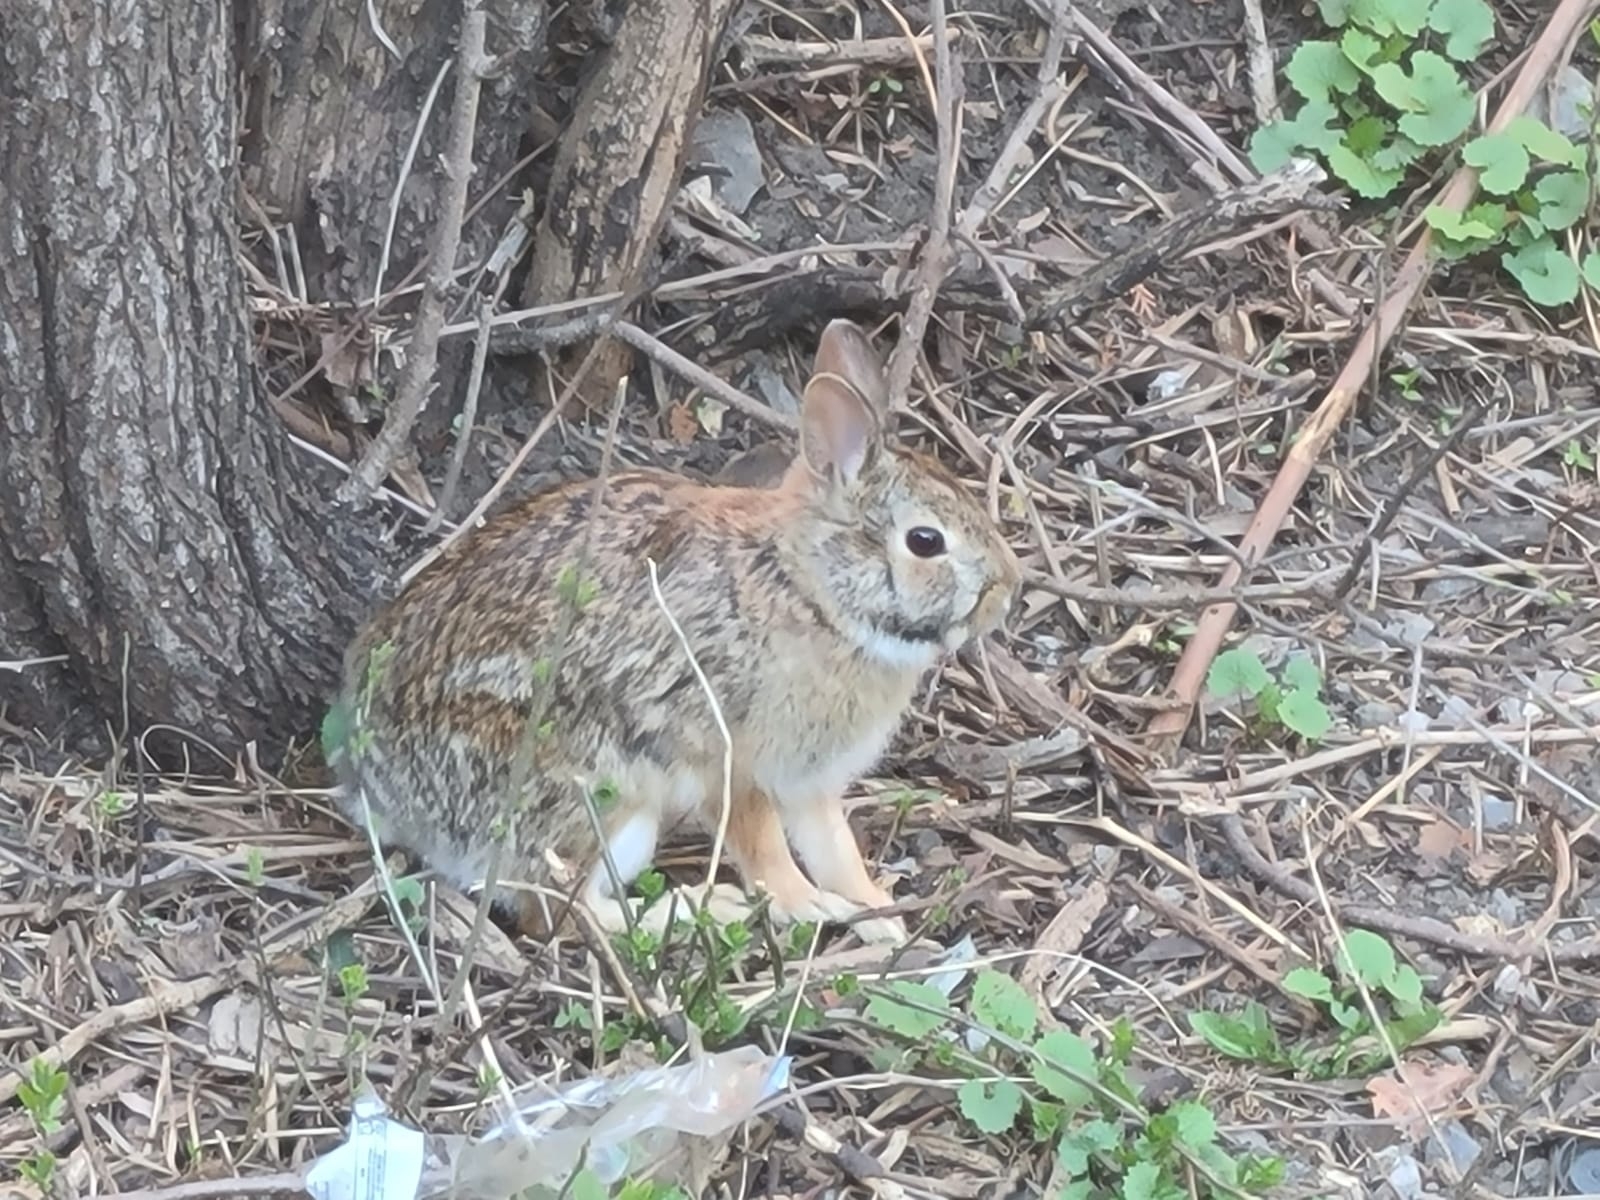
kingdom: Animalia
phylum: Chordata
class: Mammalia
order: Lagomorpha
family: Leporidae
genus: Sylvilagus
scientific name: Sylvilagus floridanus
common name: Eastern cottontail
